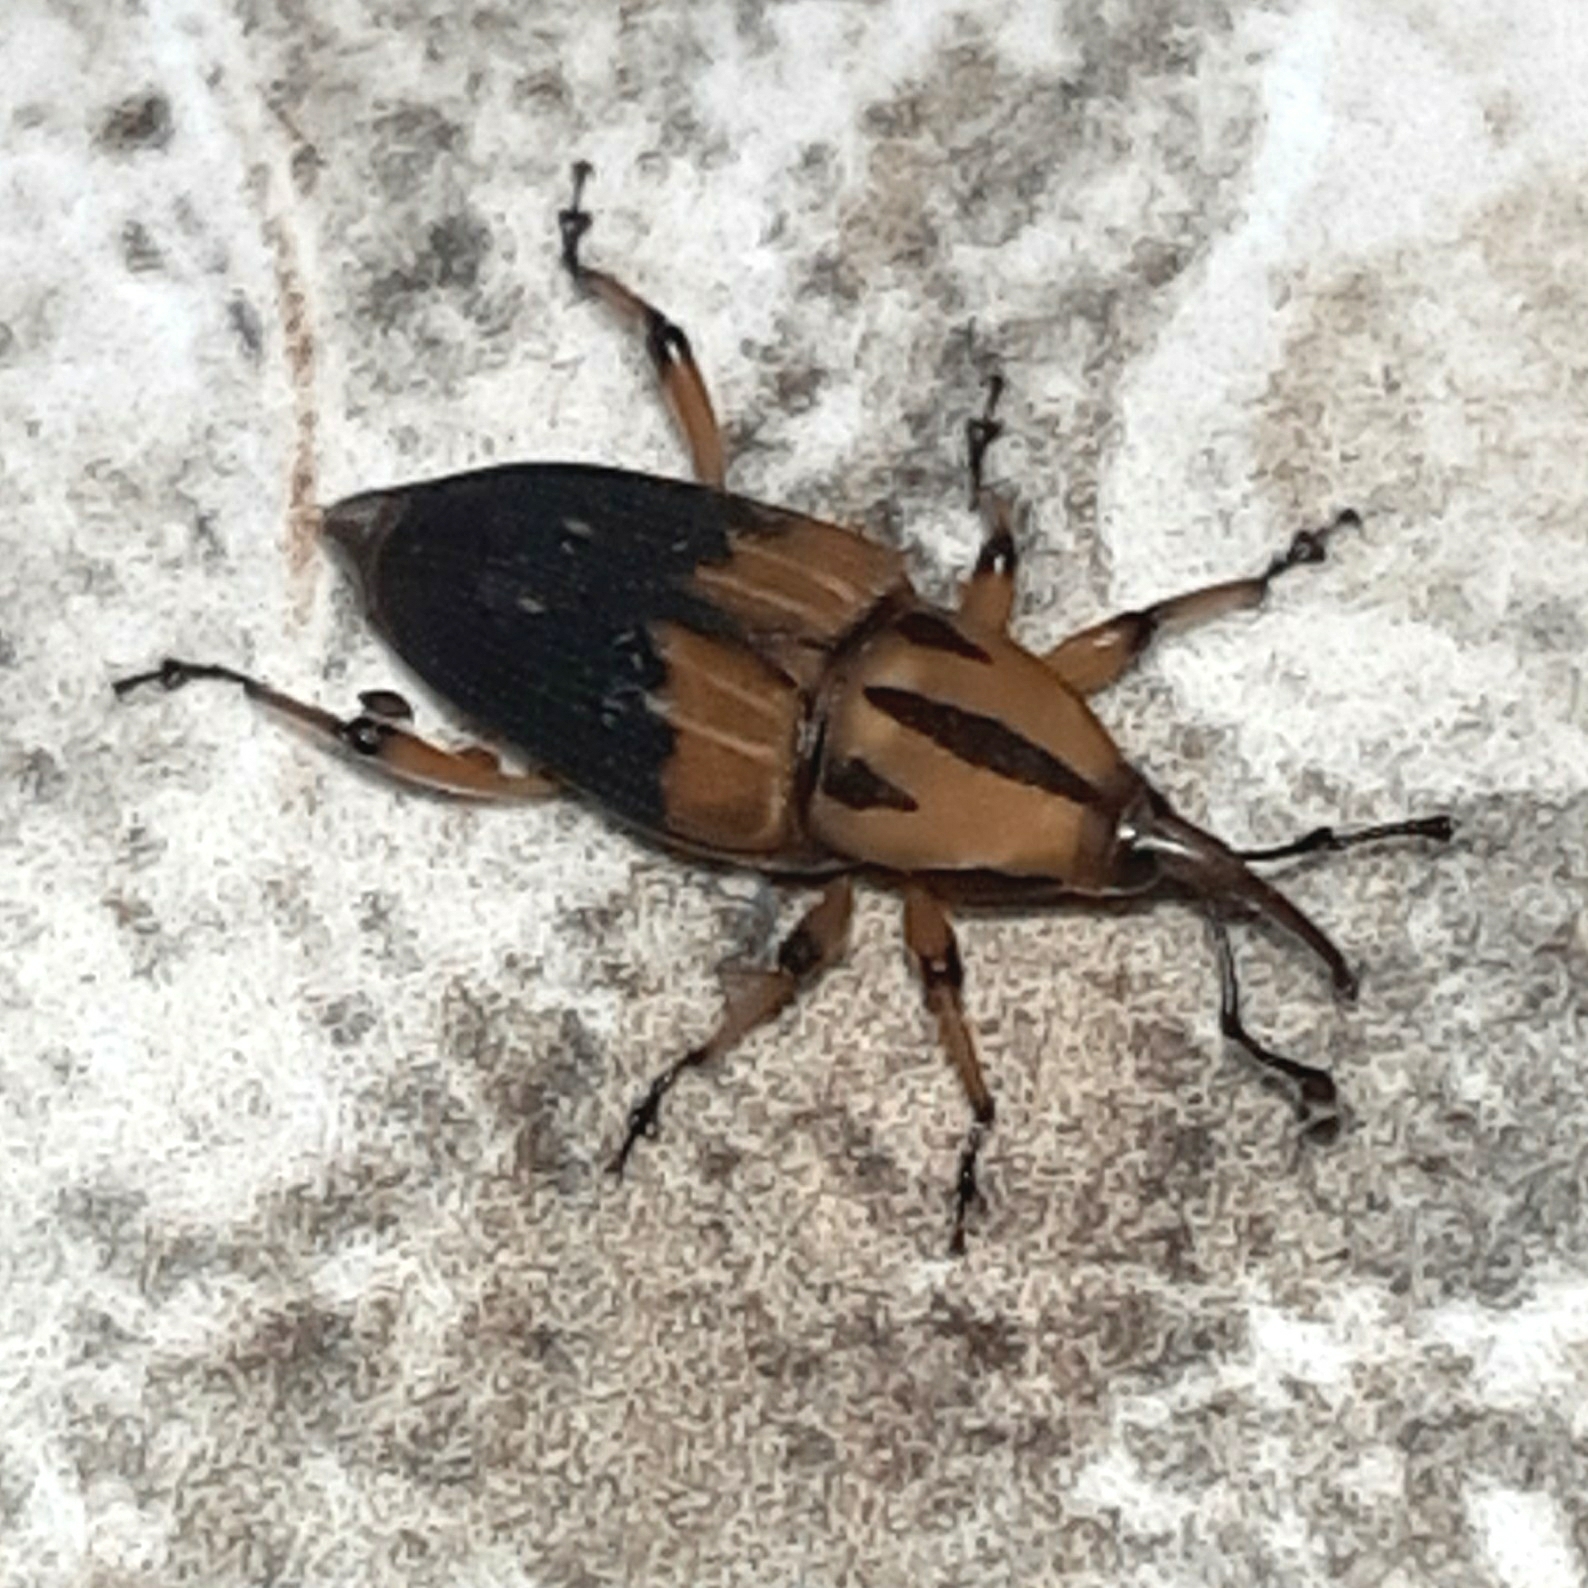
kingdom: Animalia
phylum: Arthropoda
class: Insecta
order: Coleoptera
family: Dryophthoridae
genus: Metamasius
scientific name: Metamasius sericeus
